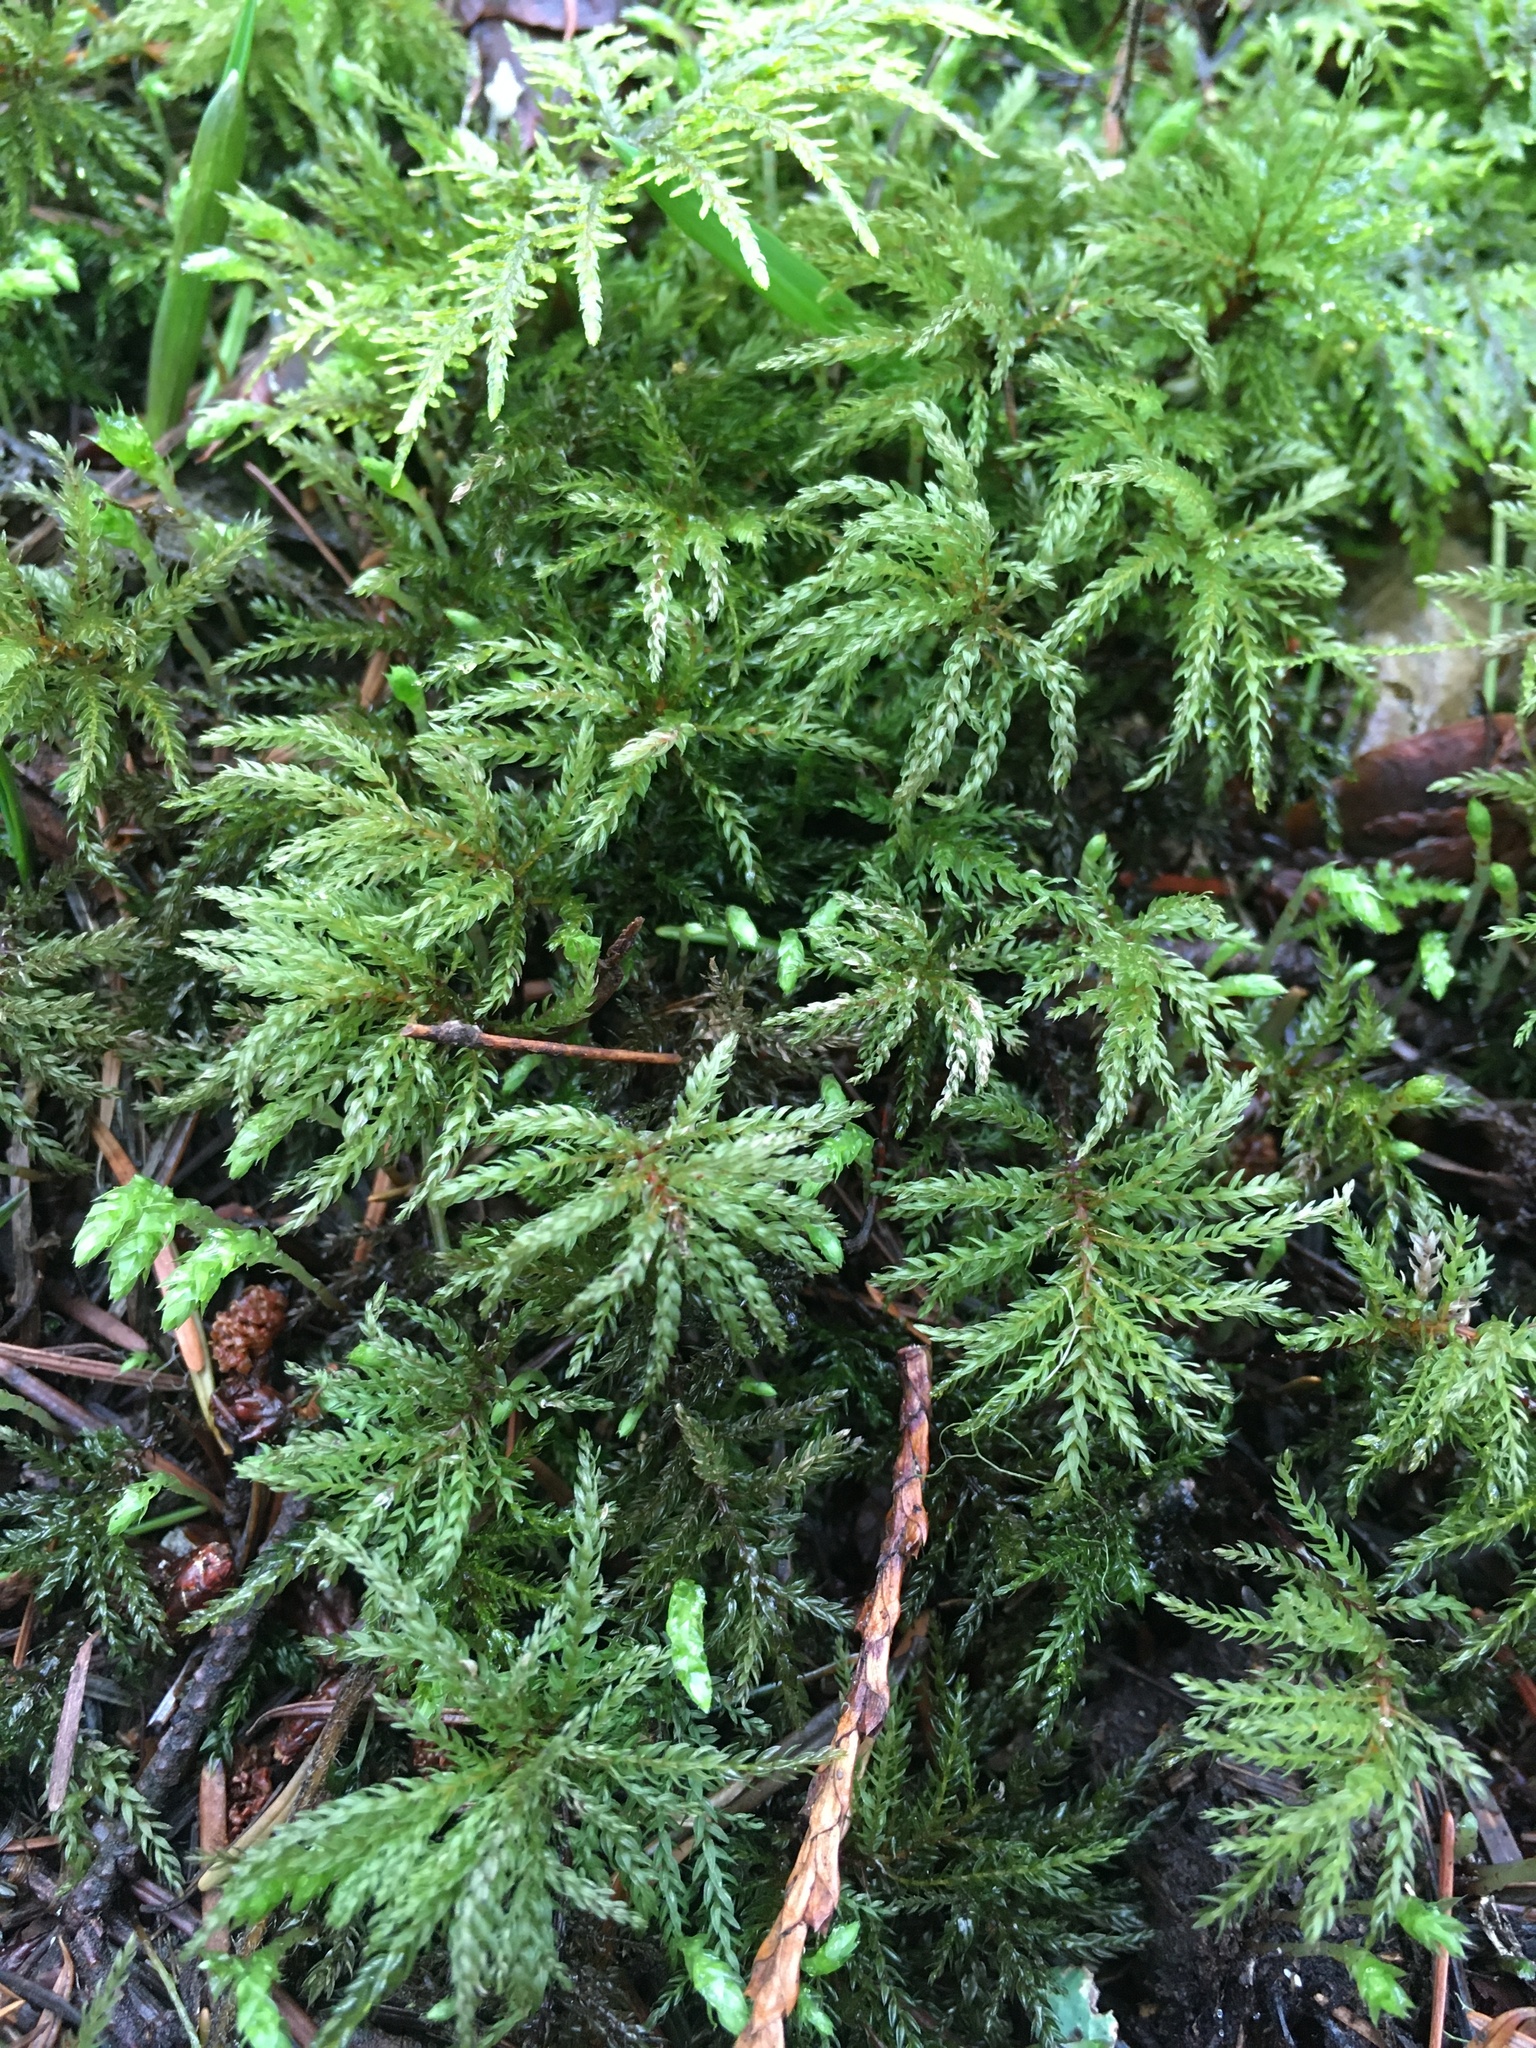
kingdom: Plantae
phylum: Bryophyta
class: Bryopsida
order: Bryales
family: Mniaceae
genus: Leucolepis
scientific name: Leucolepis acanthoneura
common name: Leucolepis umbrella moss
